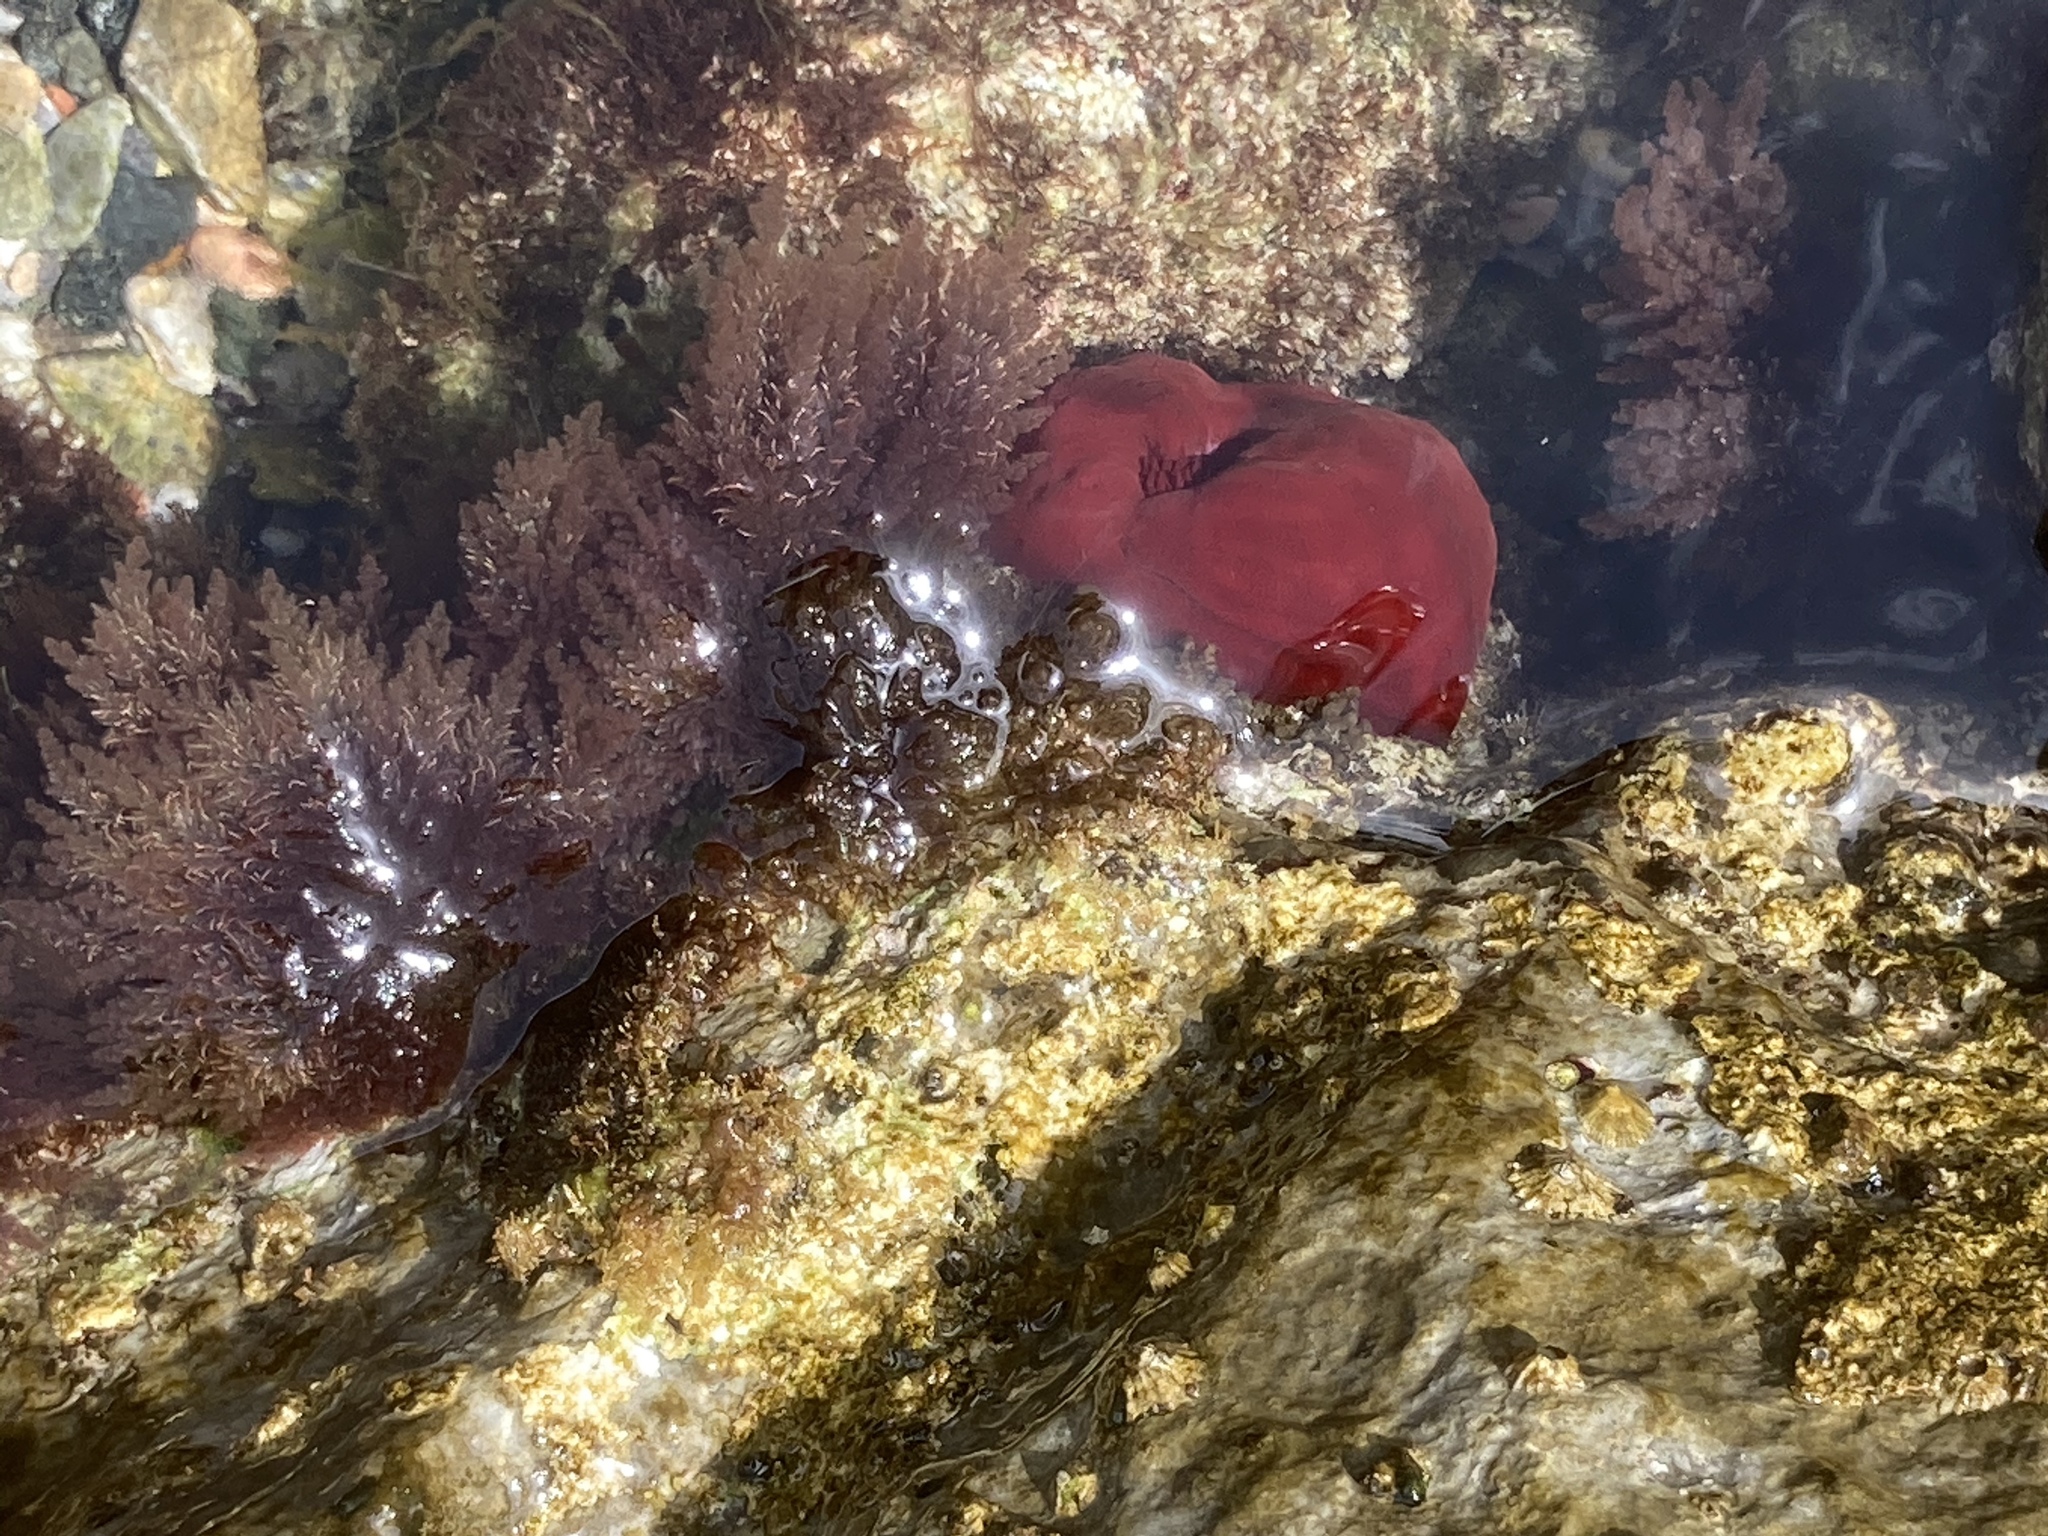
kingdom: Animalia
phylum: Cnidaria
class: Anthozoa
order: Actiniaria
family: Actiniidae
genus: Actinia
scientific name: Actinia mediterranea
